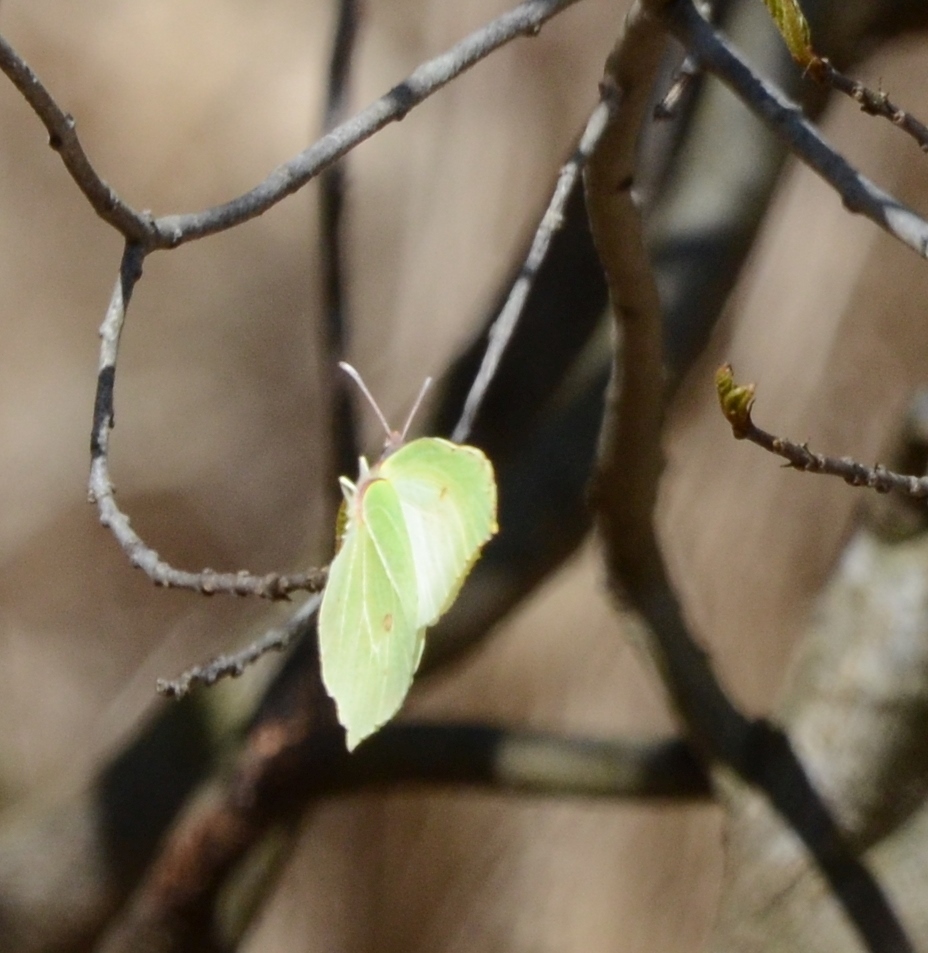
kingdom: Animalia
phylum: Arthropoda
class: Insecta
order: Lepidoptera
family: Pieridae
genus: Gonepteryx
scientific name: Gonepteryx rhamni
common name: Brimstone
